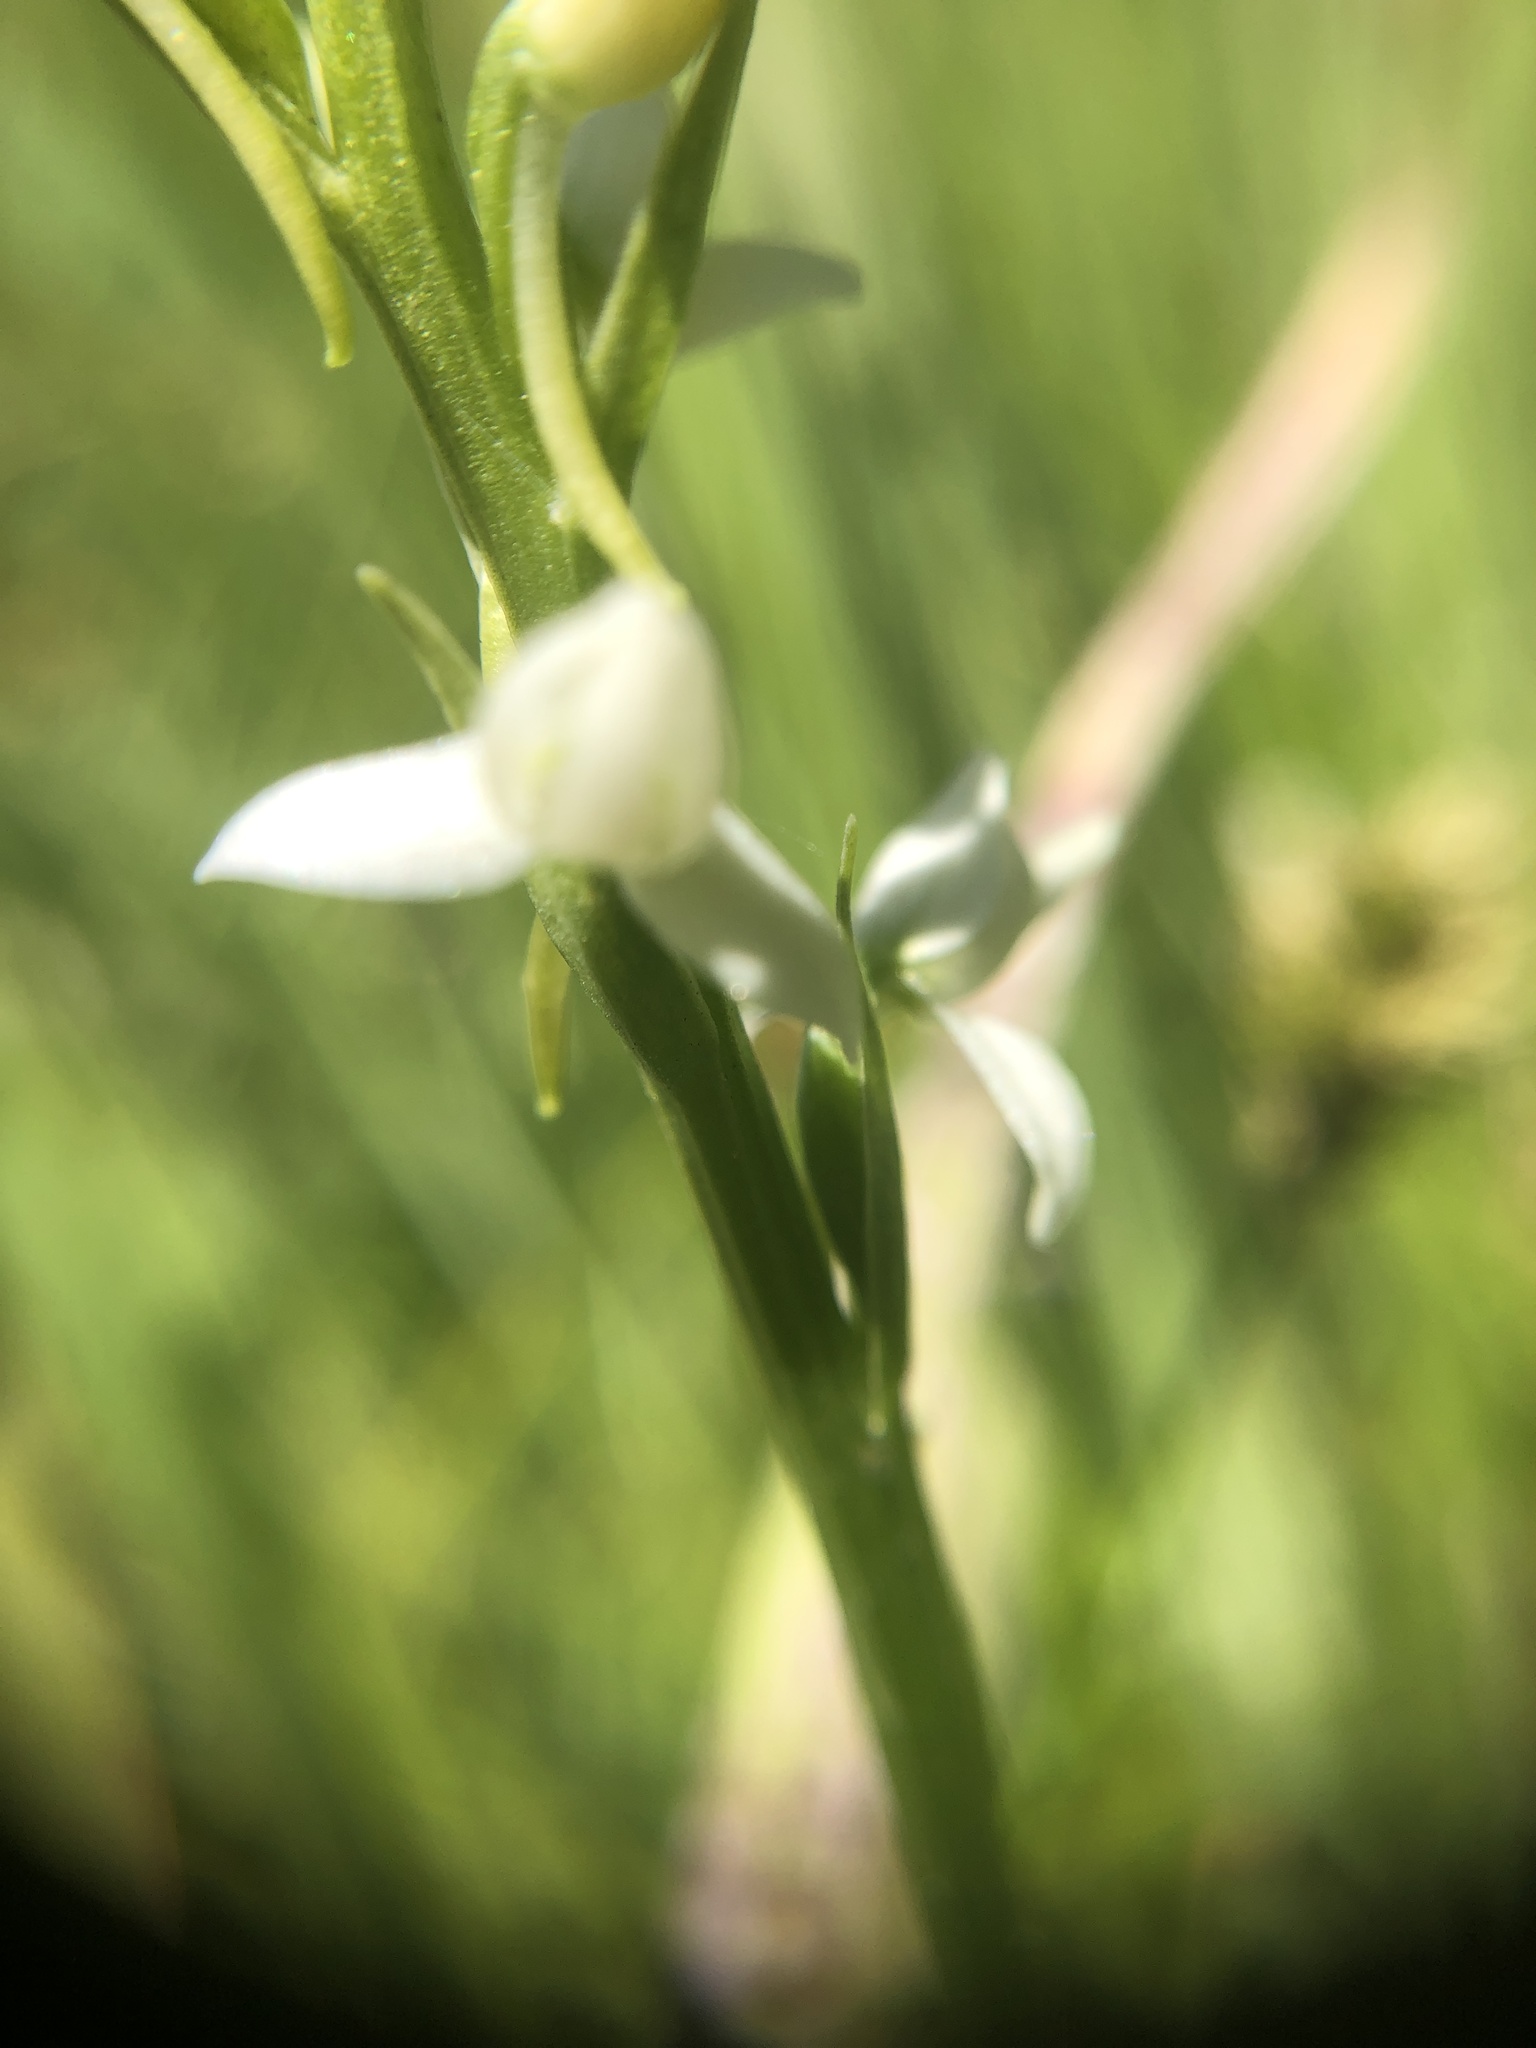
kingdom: Plantae
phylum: Tracheophyta
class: Liliopsida
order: Asparagales
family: Orchidaceae
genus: Platanthera
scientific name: Platanthera dilatata
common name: Bog candles
